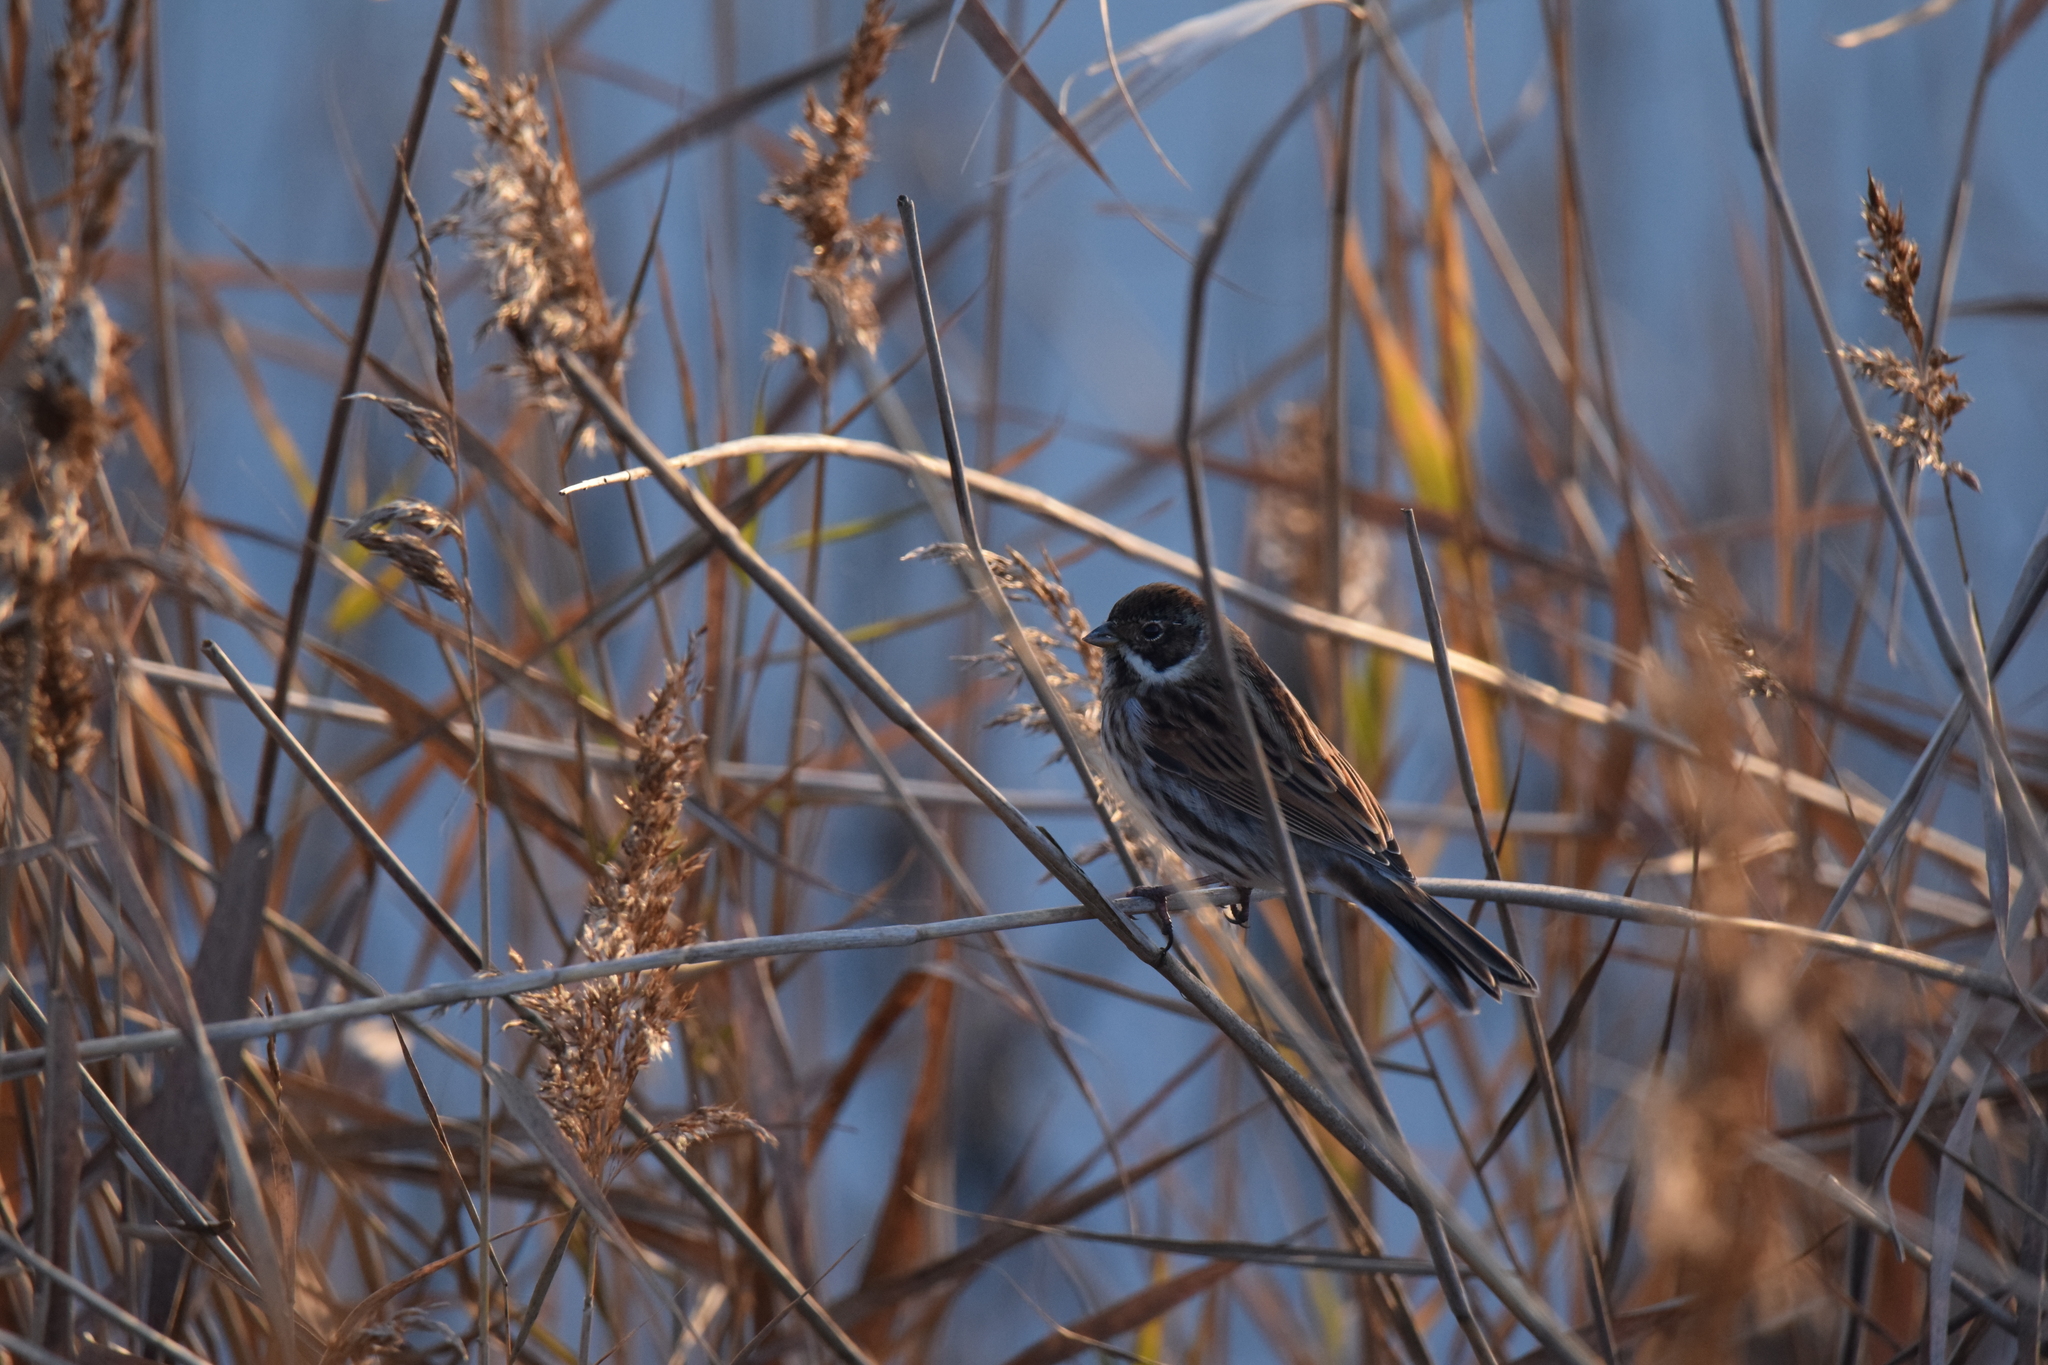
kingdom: Animalia
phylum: Chordata
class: Aves
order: Passeriformes
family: Emberizidae
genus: Emberiza
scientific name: Emberiza schoeniclus
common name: Reed bunting
